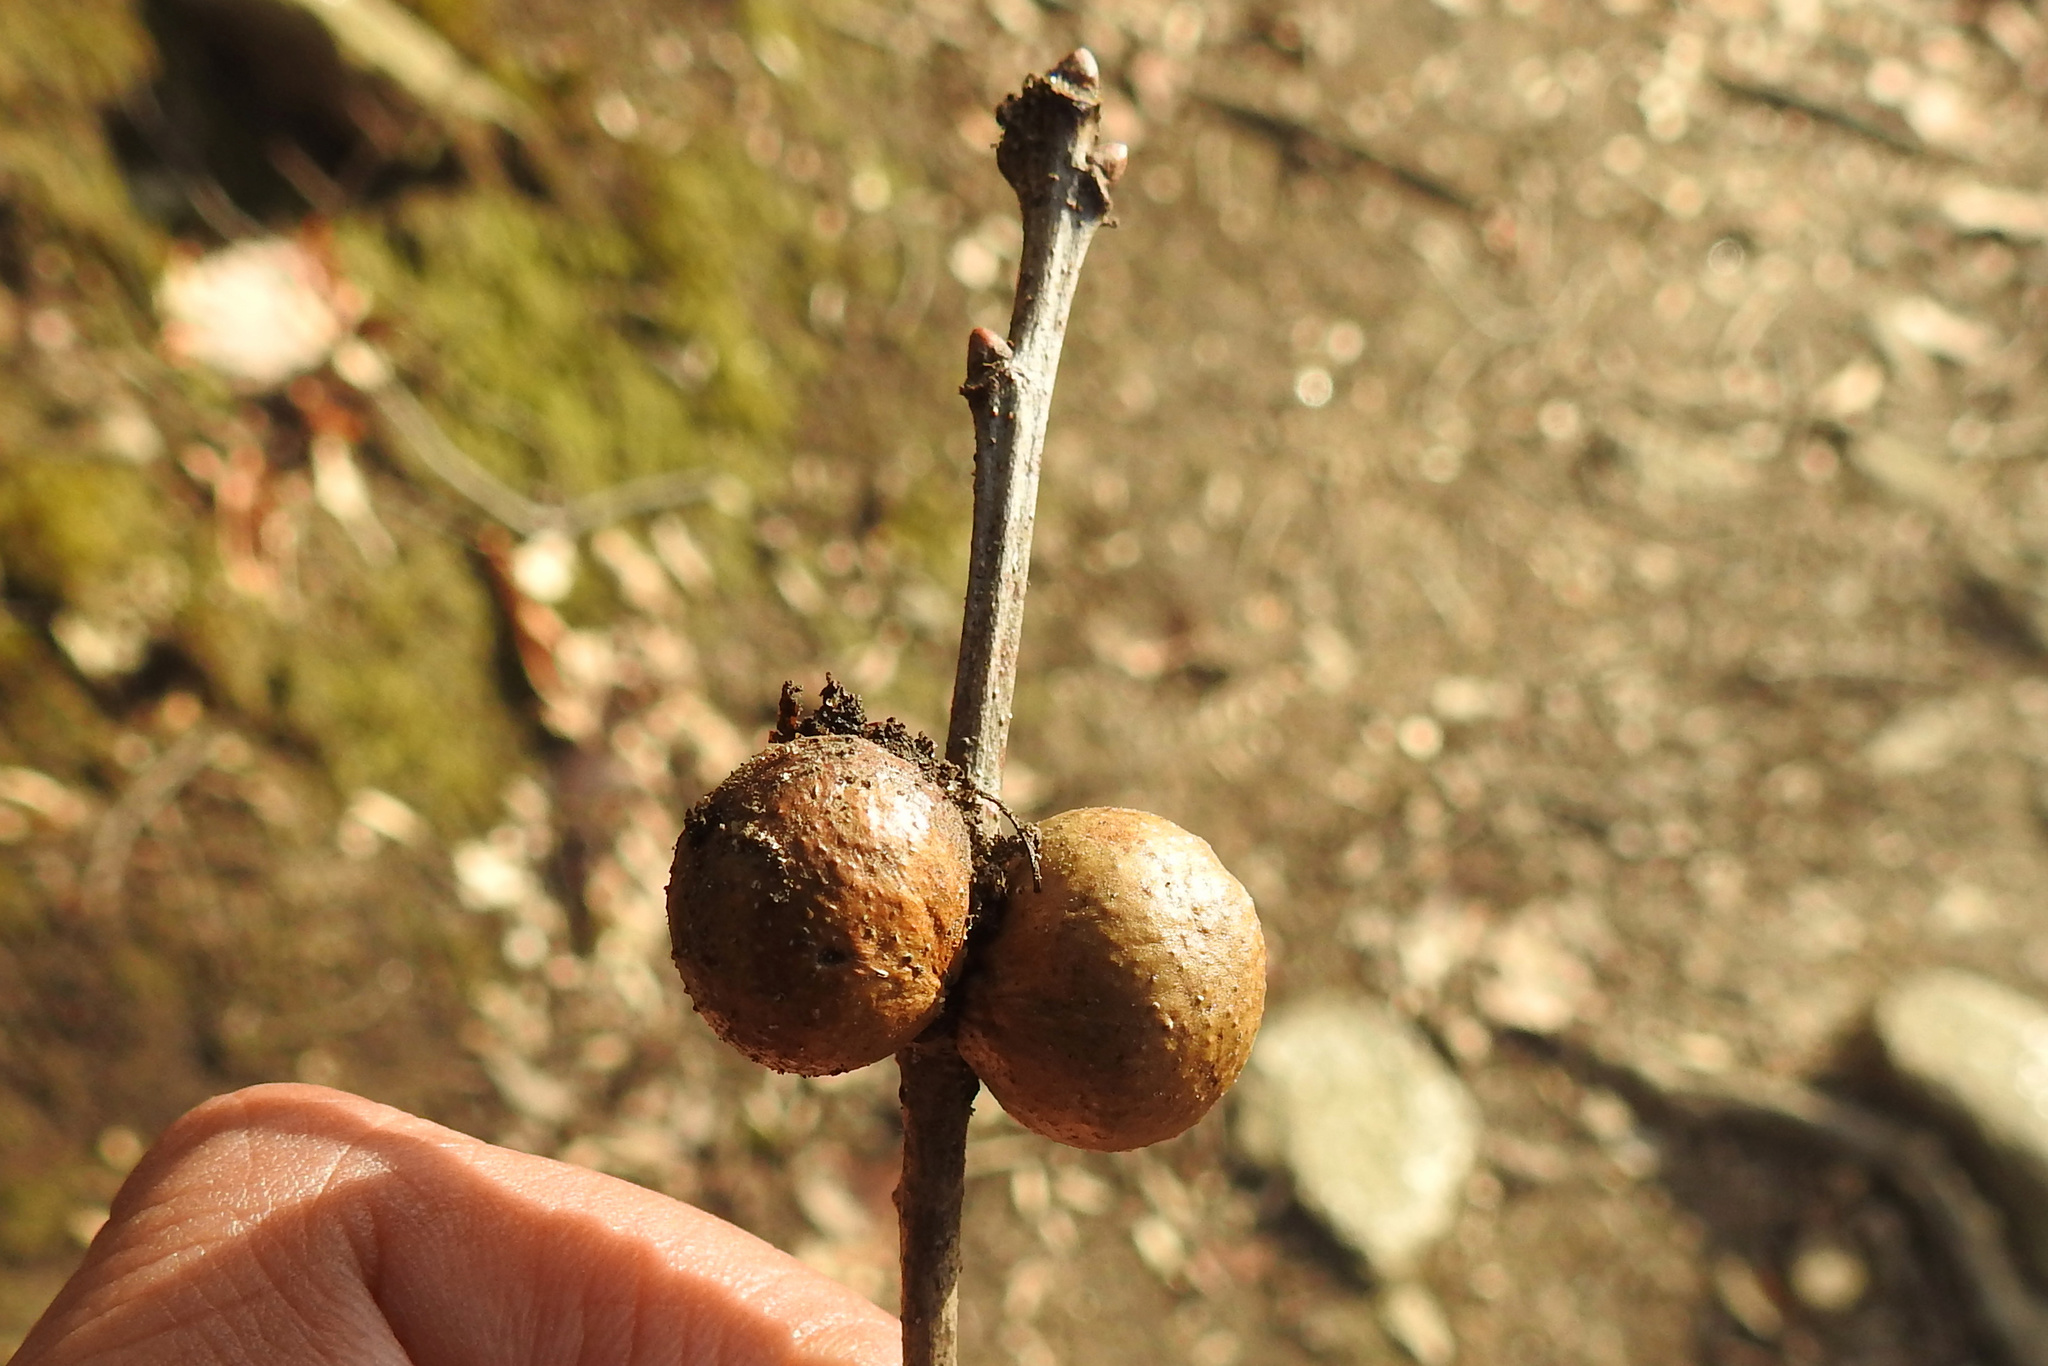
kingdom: Animalia
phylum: Arthropoda
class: Insecta
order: Hymenoptera
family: Cynipidae
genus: Disholcaspis
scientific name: Disholcaspis quercusglobulus
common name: Round bullet gall wasp
